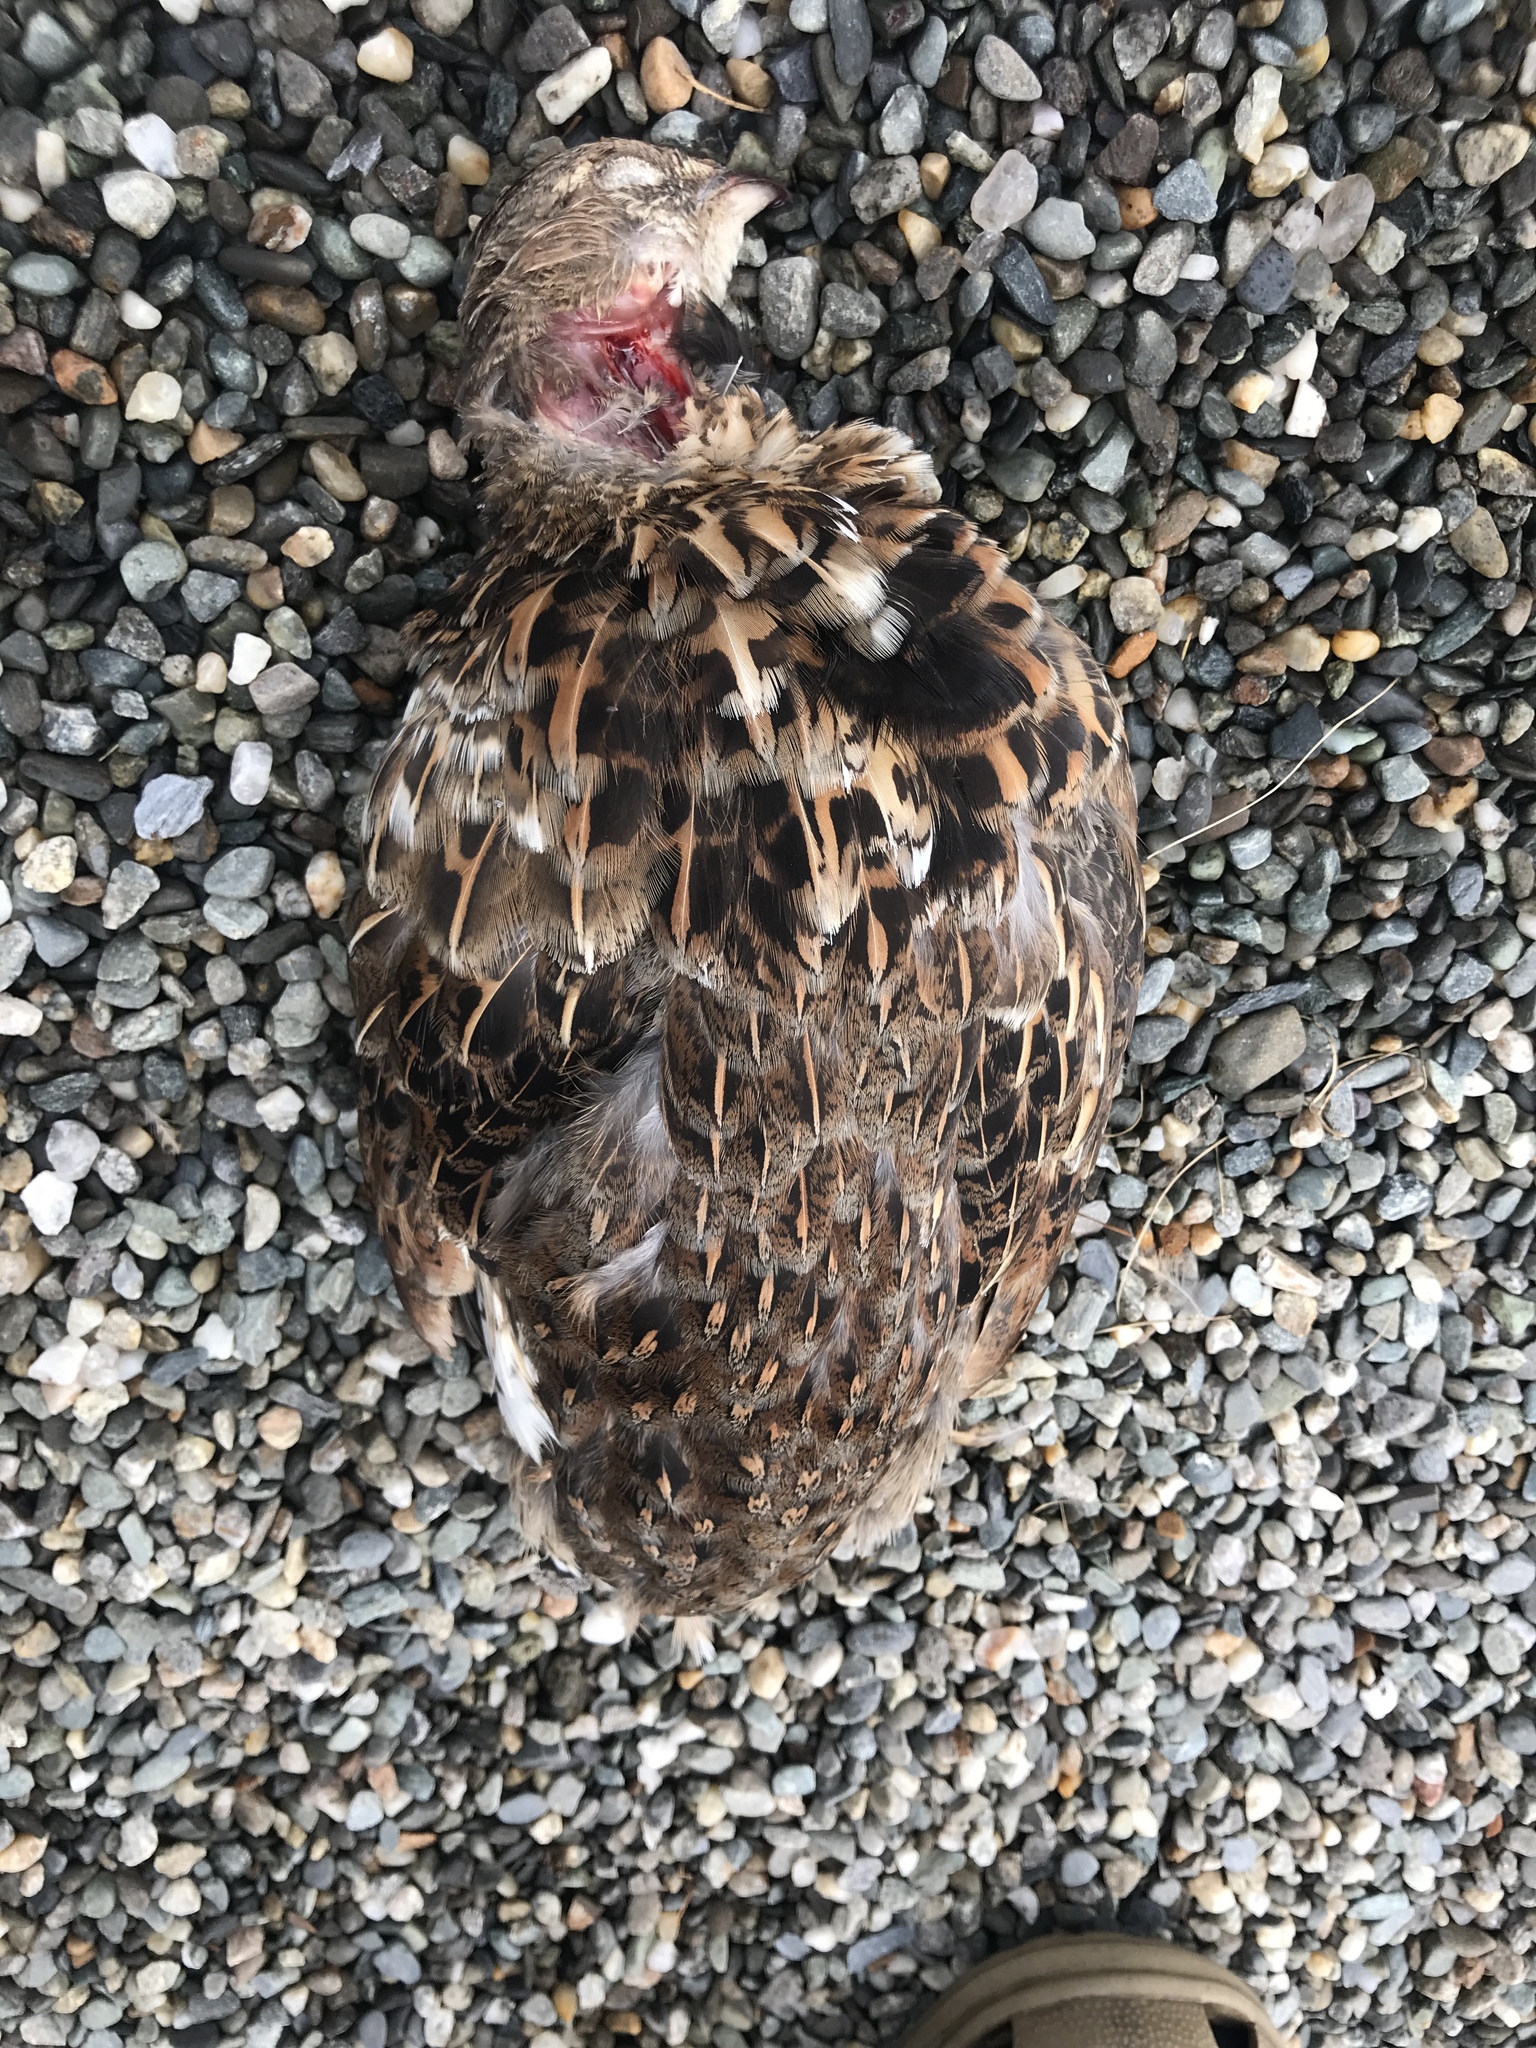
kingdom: Animalia
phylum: Chordata
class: Aves
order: Galliformes
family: Phasianidae
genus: Bonasa
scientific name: Bonasa umbellus
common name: Ruffed grouse
